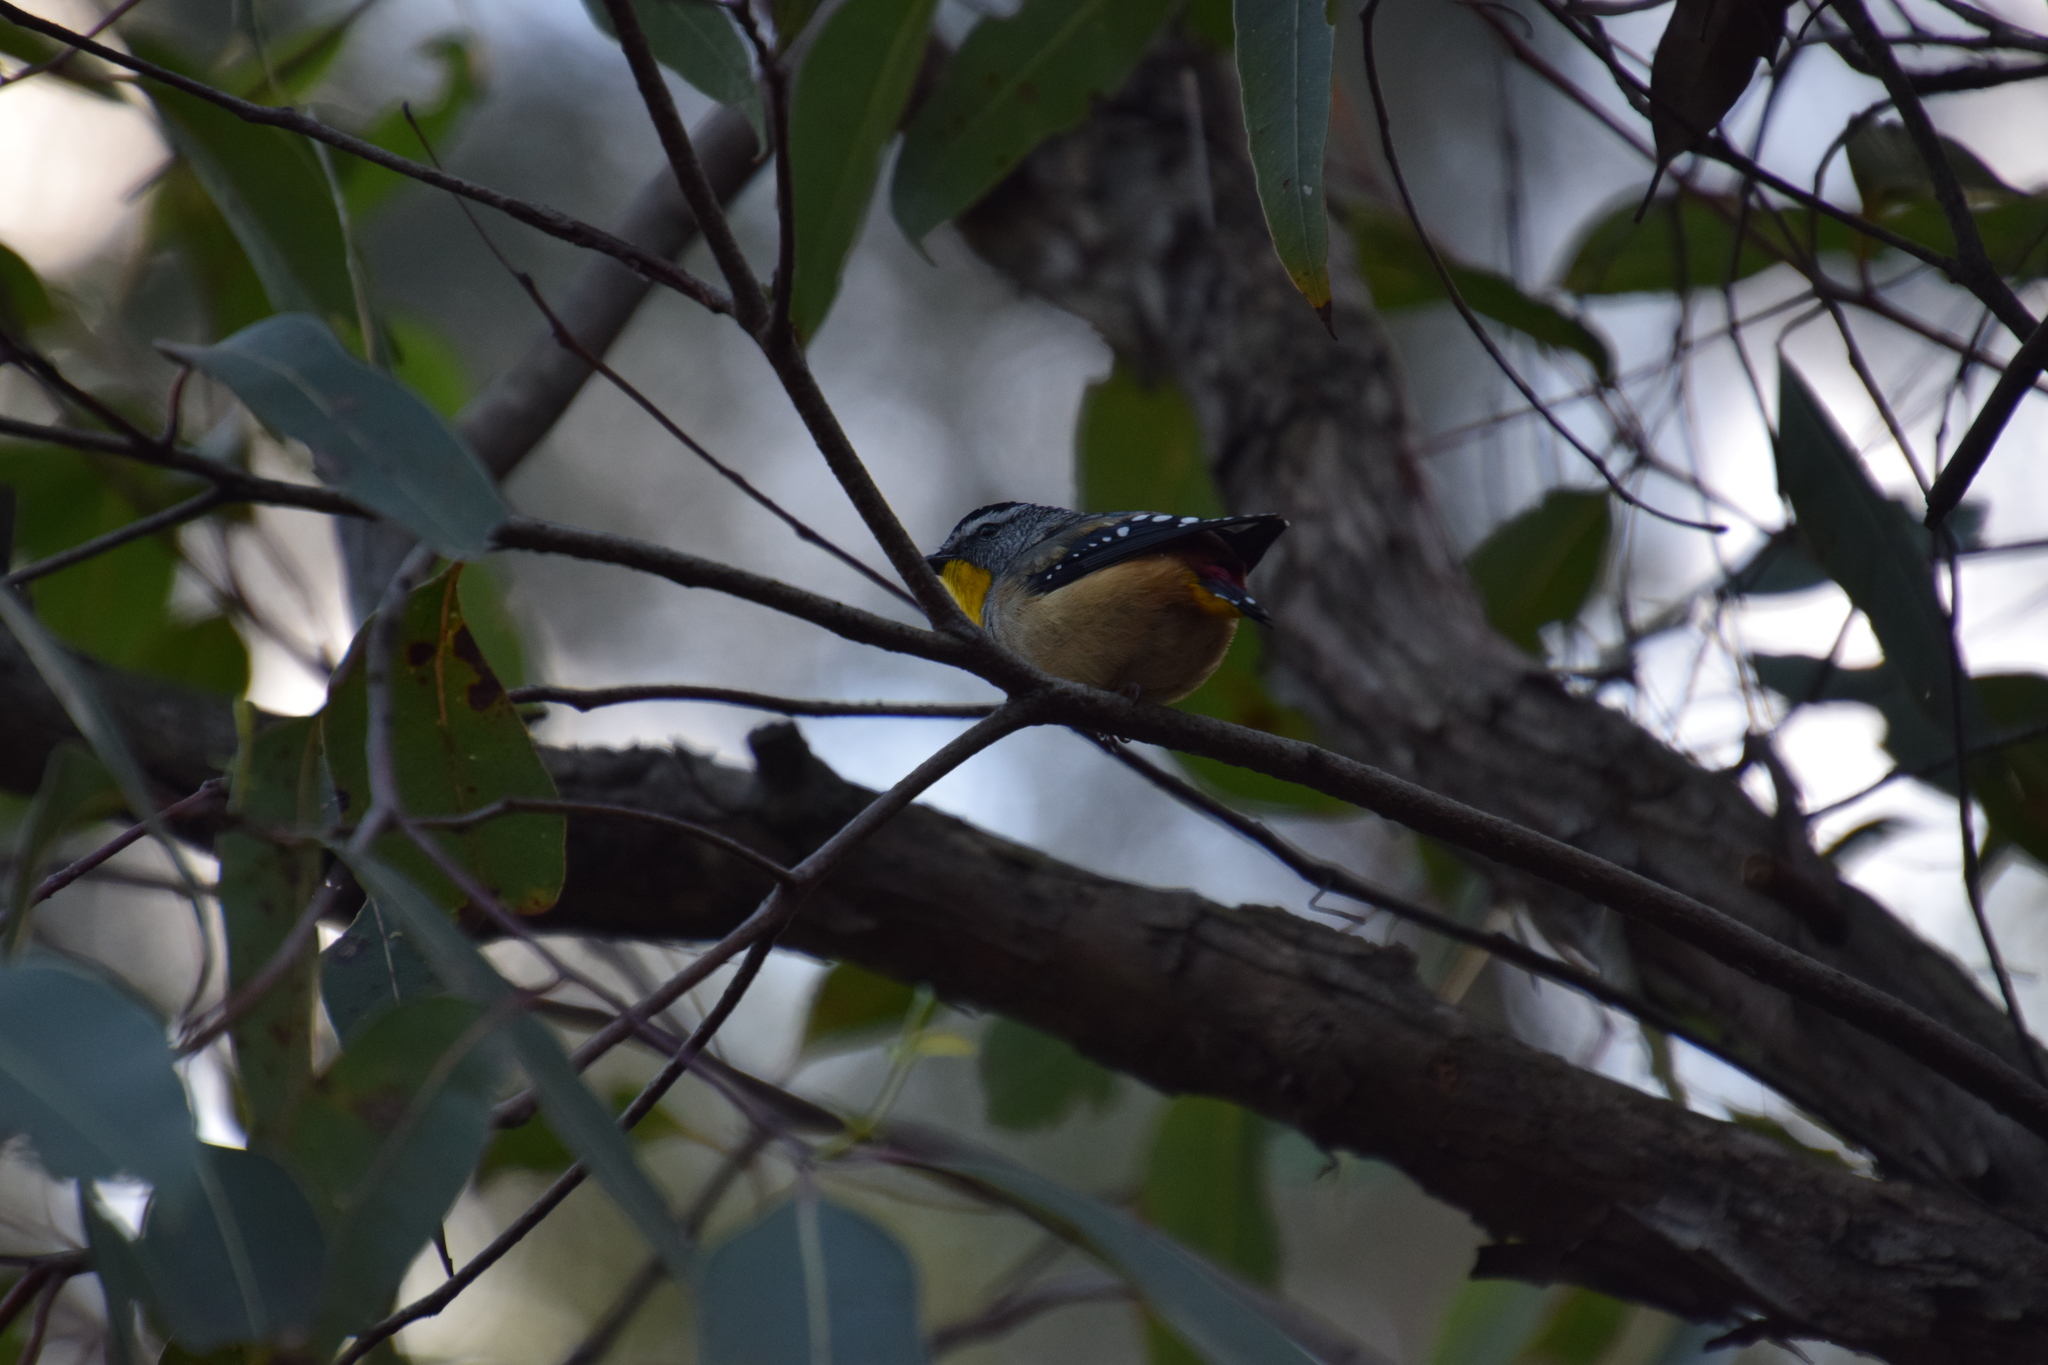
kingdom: Animalia
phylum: Chordata
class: Aves
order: Passeriformes
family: Pardalotidae
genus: Pardalotus
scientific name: Pardalotus punctatus
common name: Spotted pardalote
